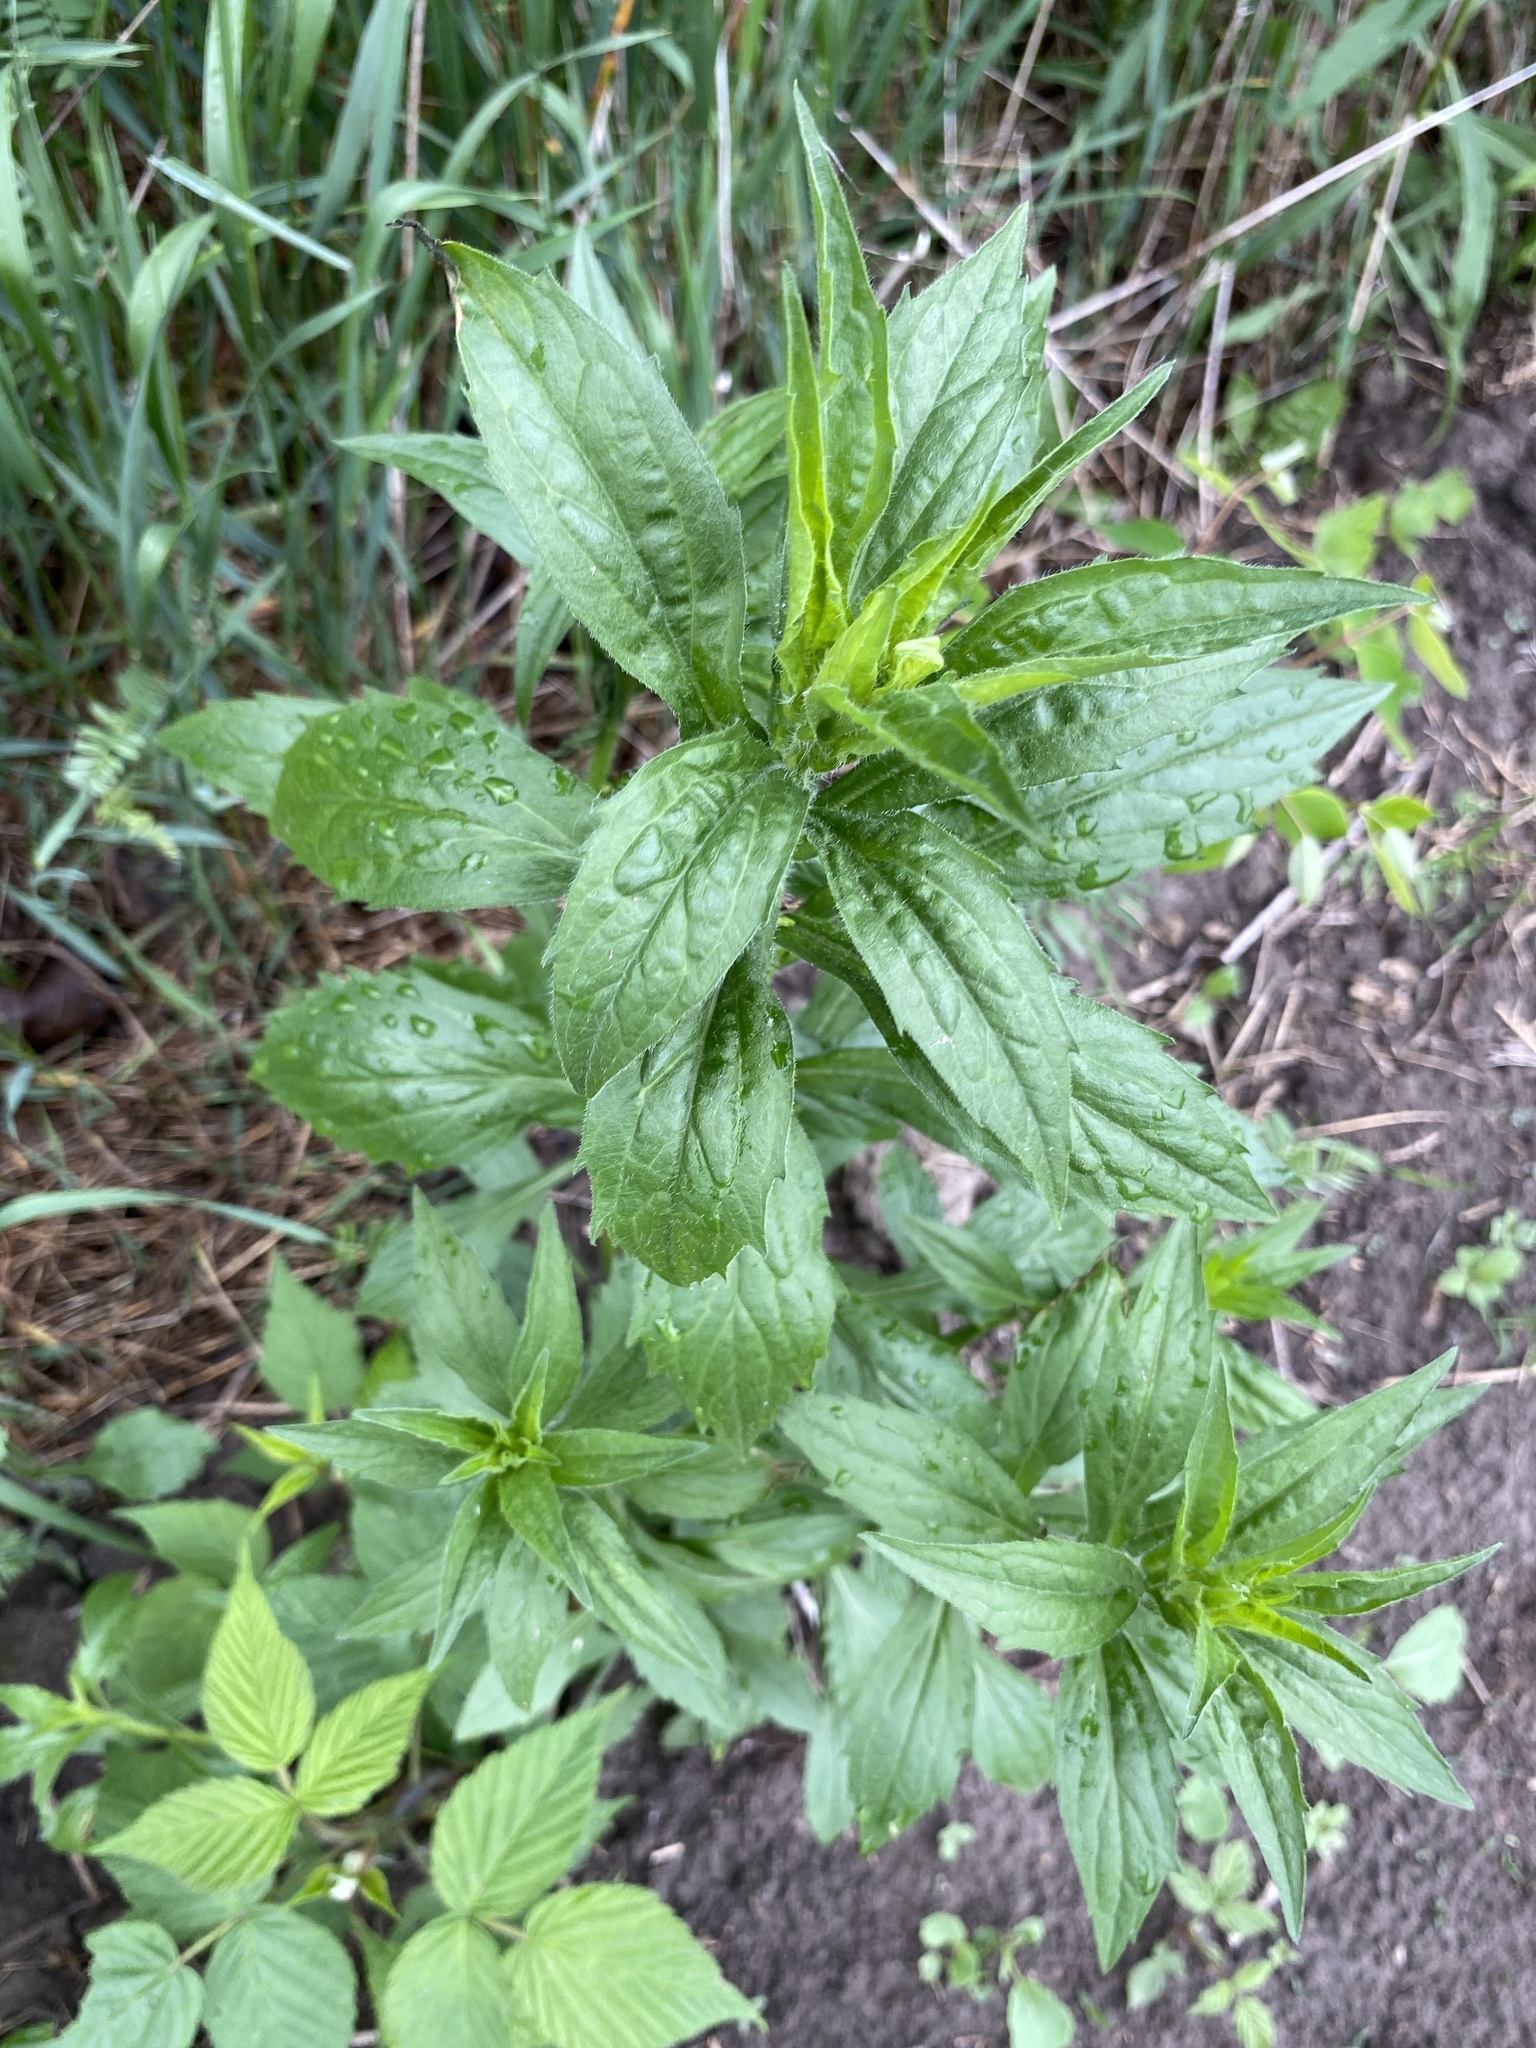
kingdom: Plantae
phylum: Tracheophyta
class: Magnoliopsida
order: Asterales
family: Asteraceae
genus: Erigeron
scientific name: Erigeron annuus
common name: Tall fleabane
